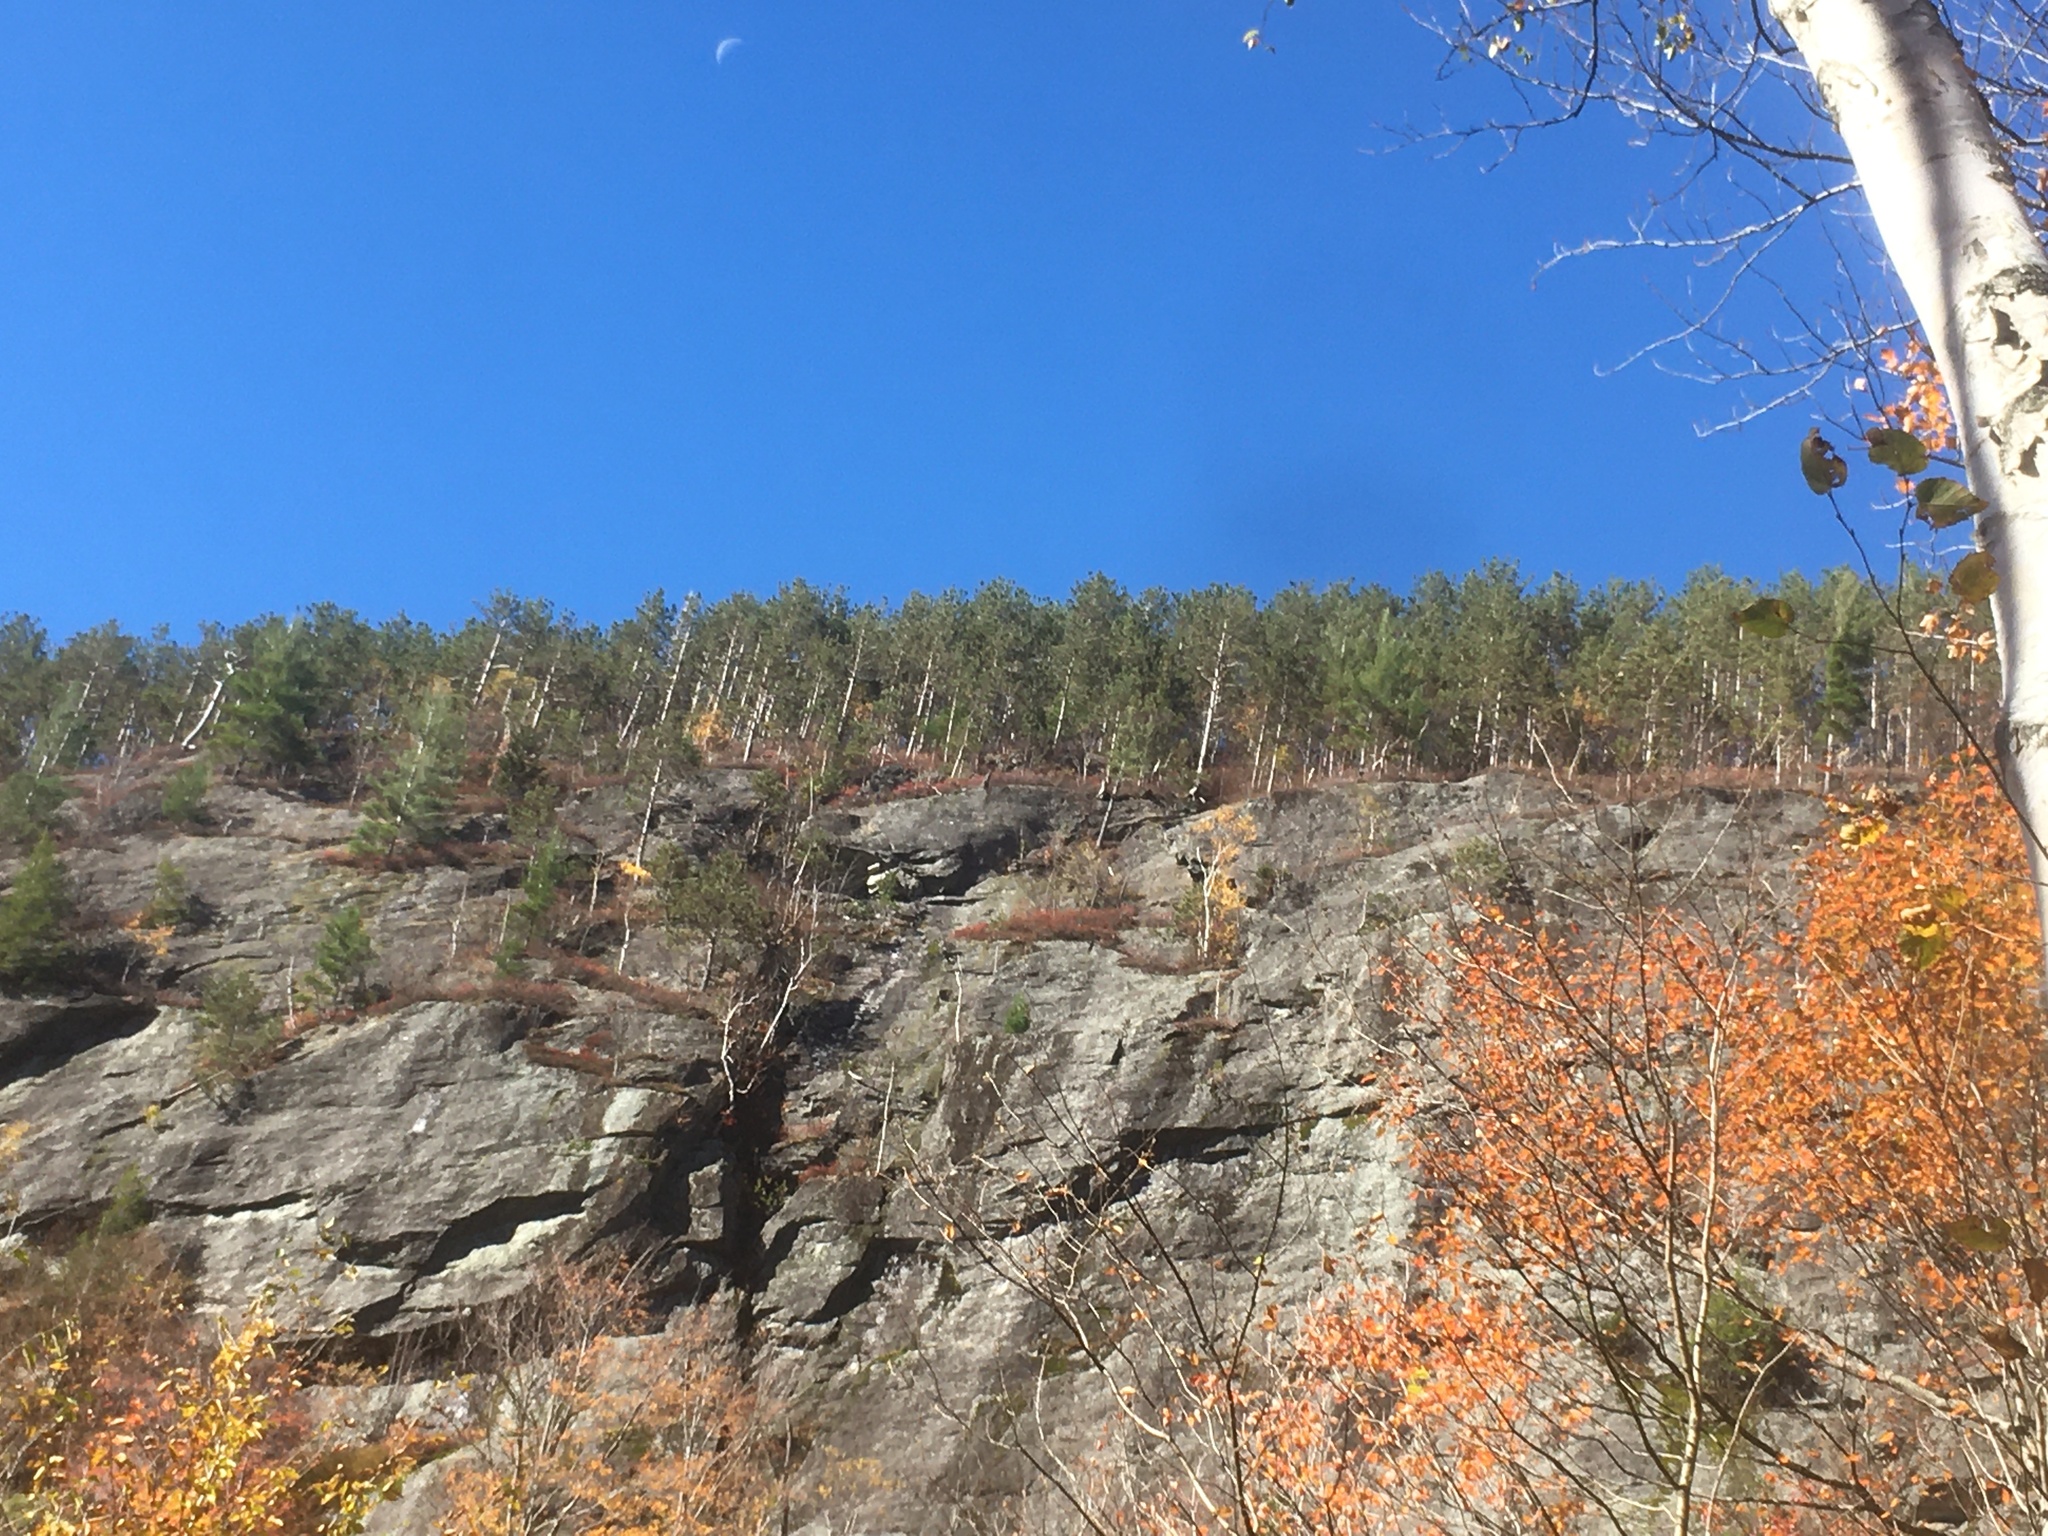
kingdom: Plantae
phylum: Tracheophyta
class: Pinopsida
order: Pinales
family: Pinaceae
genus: Pinus
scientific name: Pinus resinosa
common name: Norway pine
